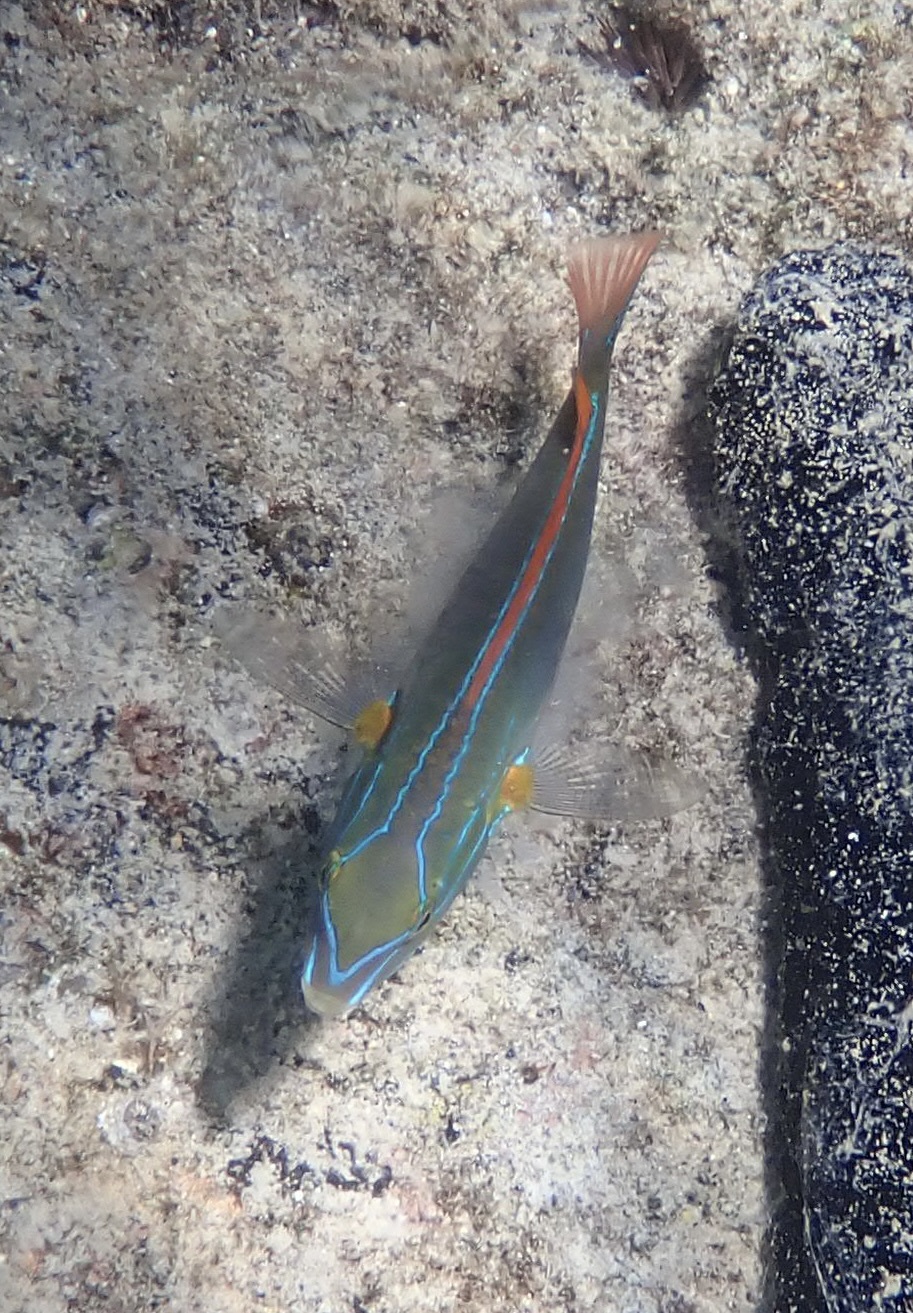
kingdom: Animalia
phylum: Chordata
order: Perciformes
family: Labridae
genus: Stethojulis
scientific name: Stethojulis balteata
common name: Belted wrasse
